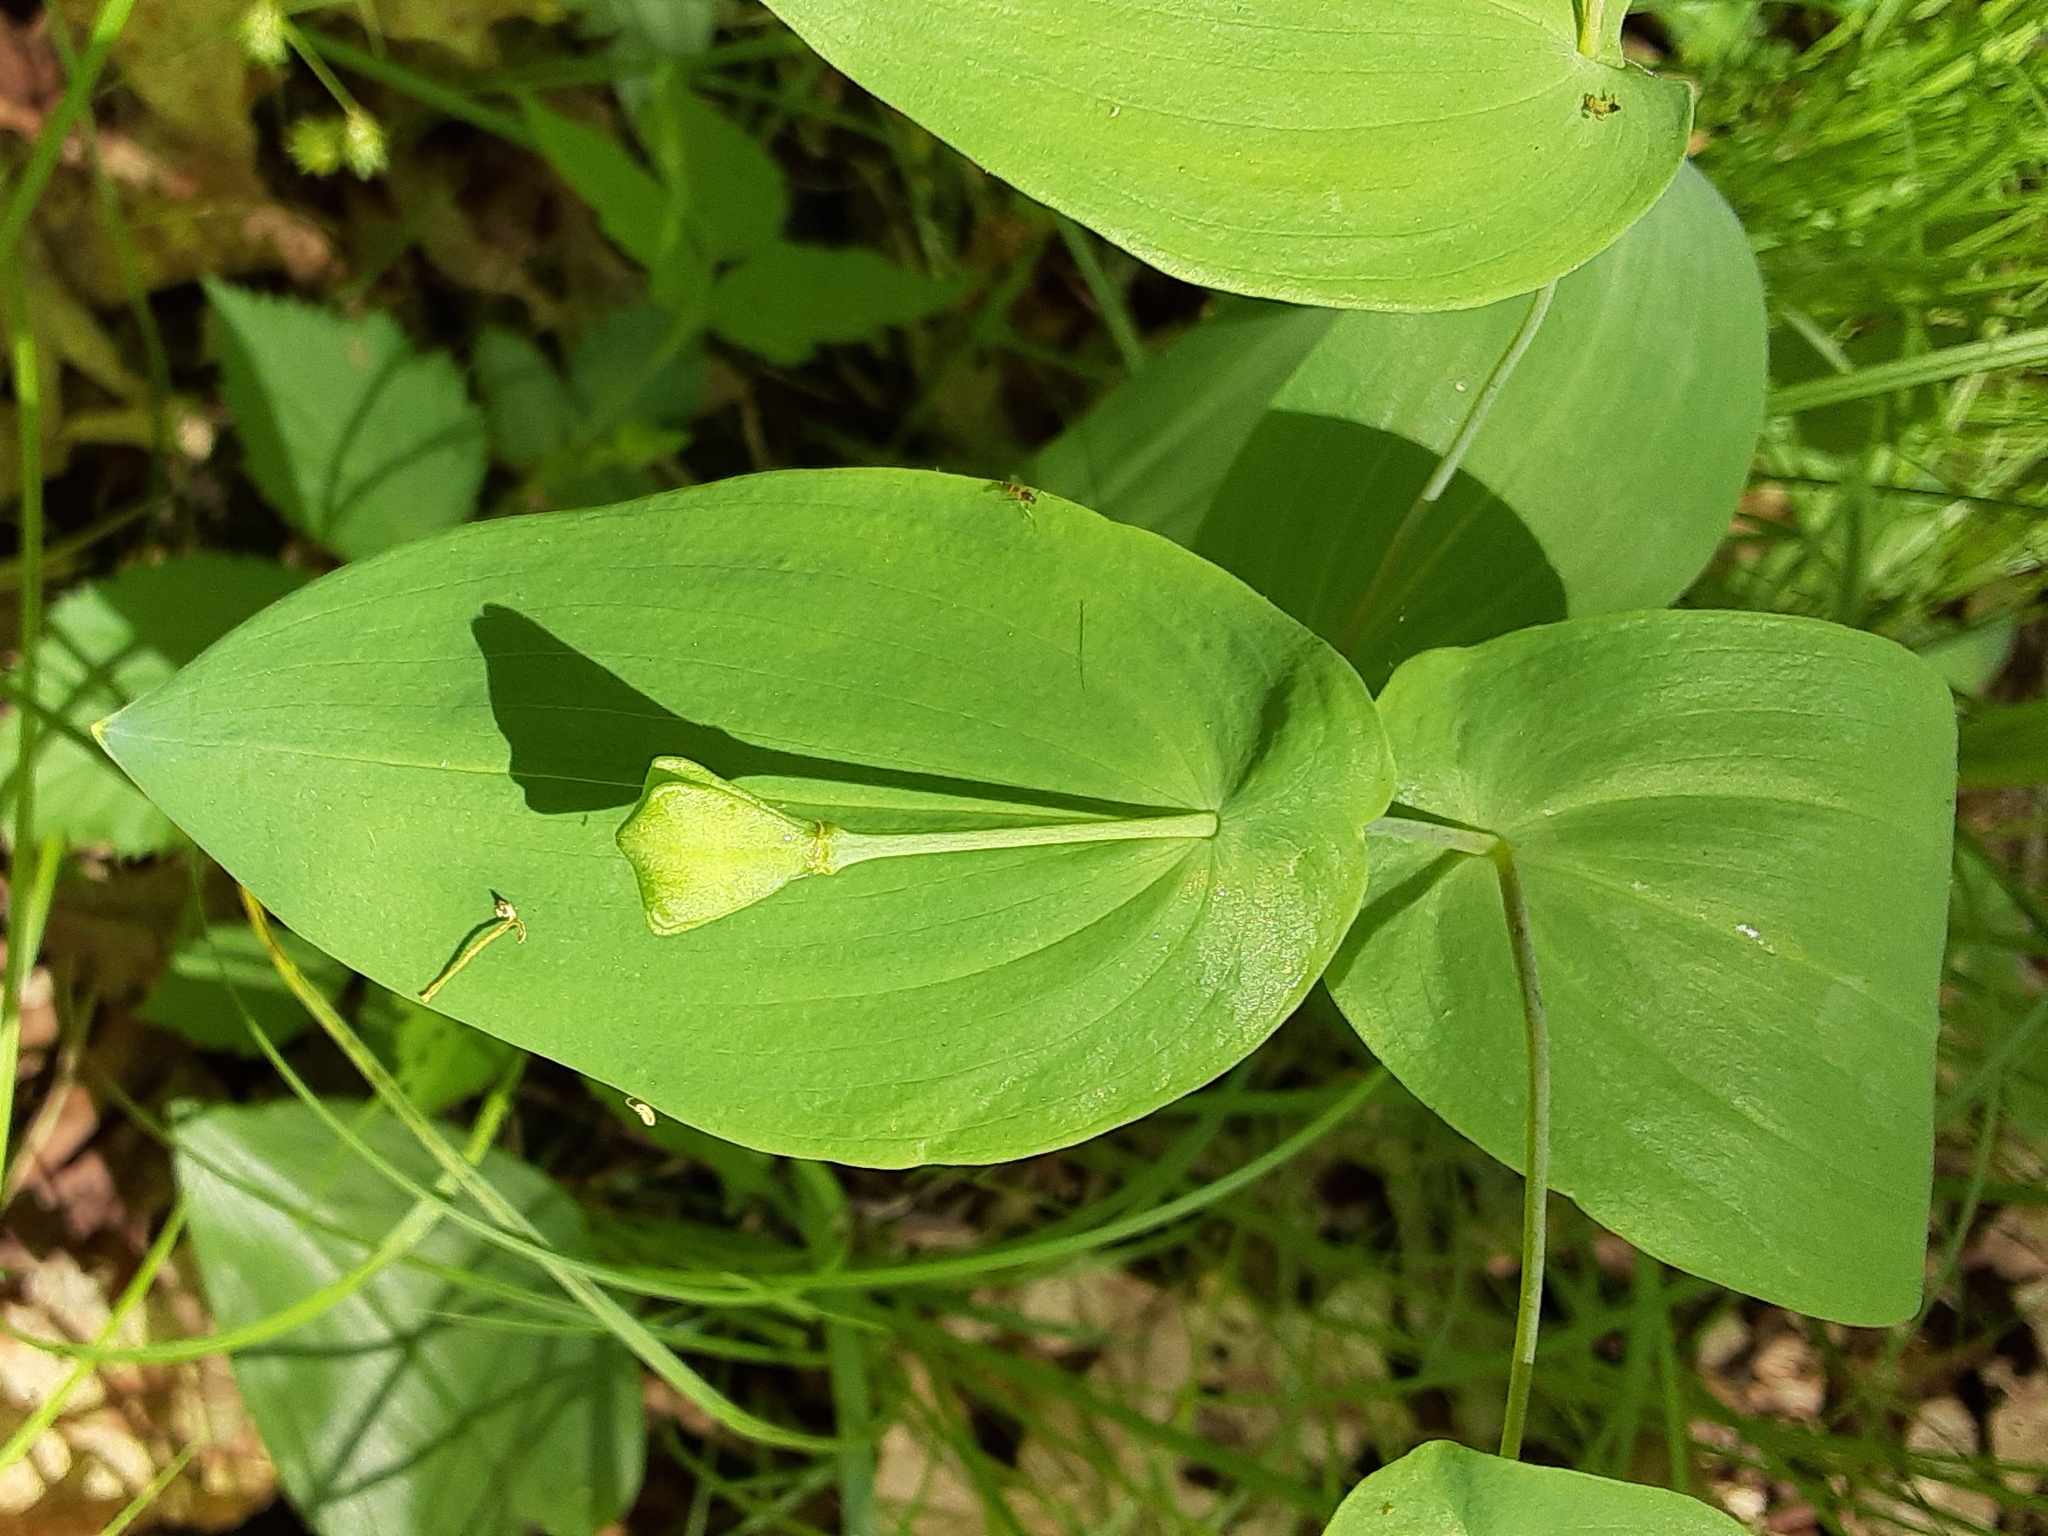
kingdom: Plantae
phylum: Tracheophyta
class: Liliopsida
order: Liliales
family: Colchicaceae
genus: Uvularia
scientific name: Uvularia perfoliata
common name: Perfoliate bellwort
